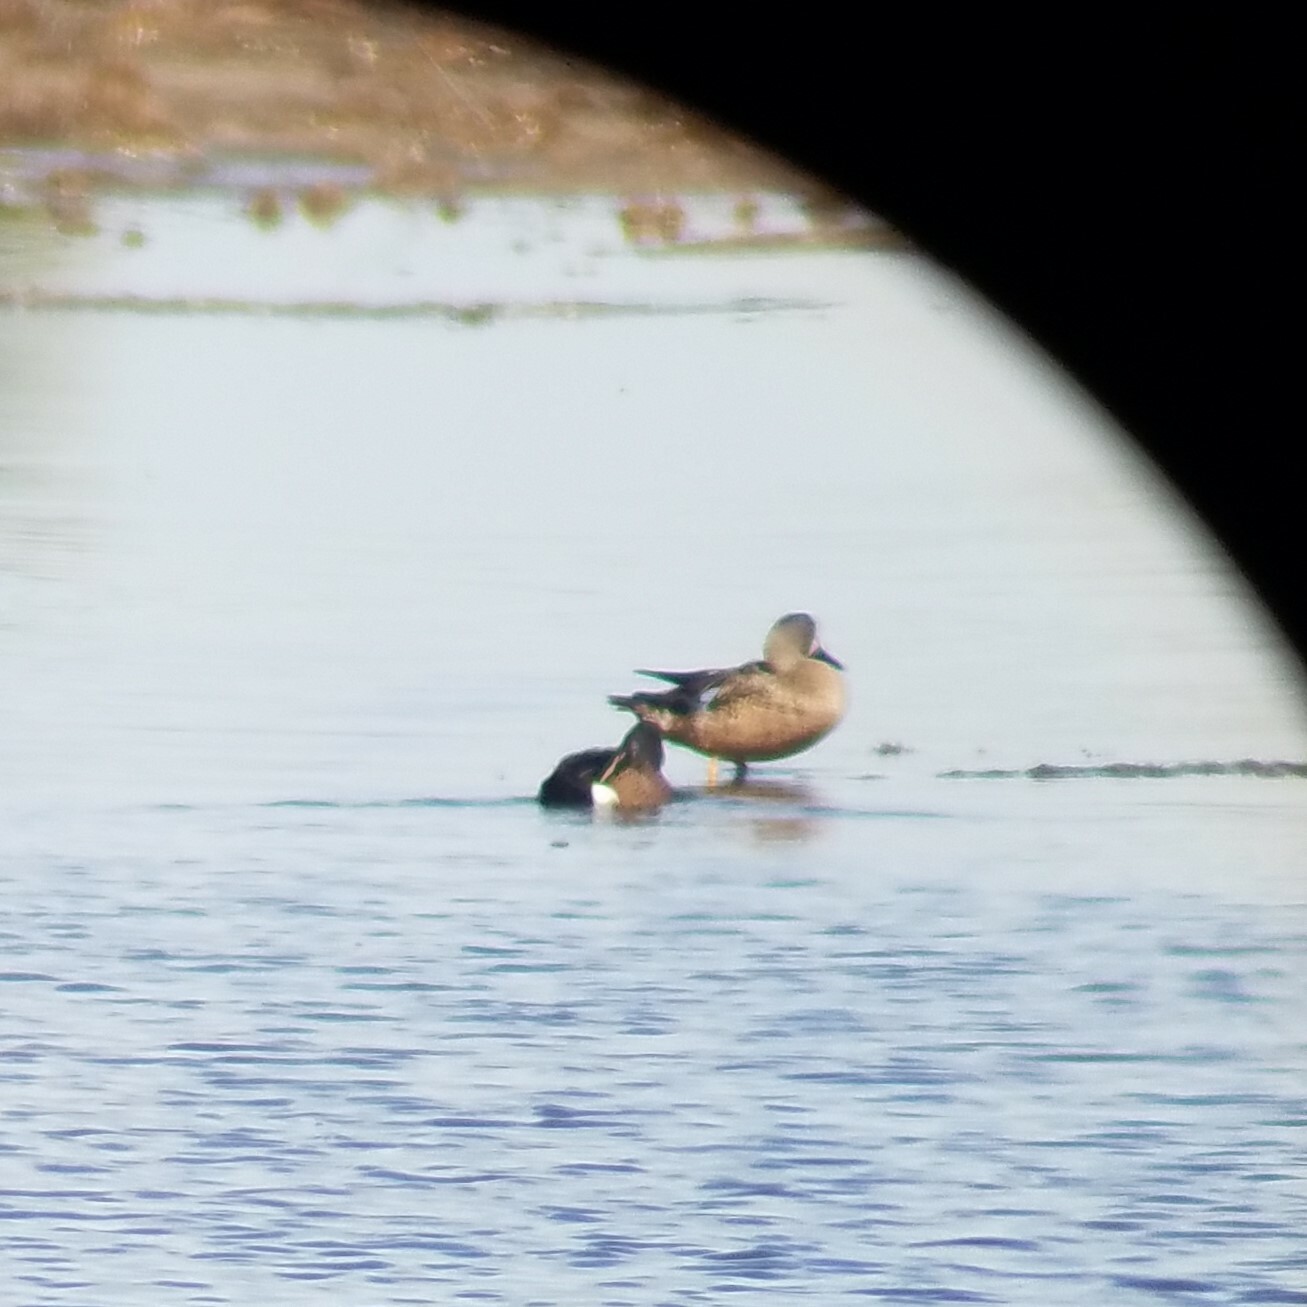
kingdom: Animalia
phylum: Chordata
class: Aves
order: Anseriformes
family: Anatidae
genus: Spatula
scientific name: Spatula discors
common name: Blue-winged teal
